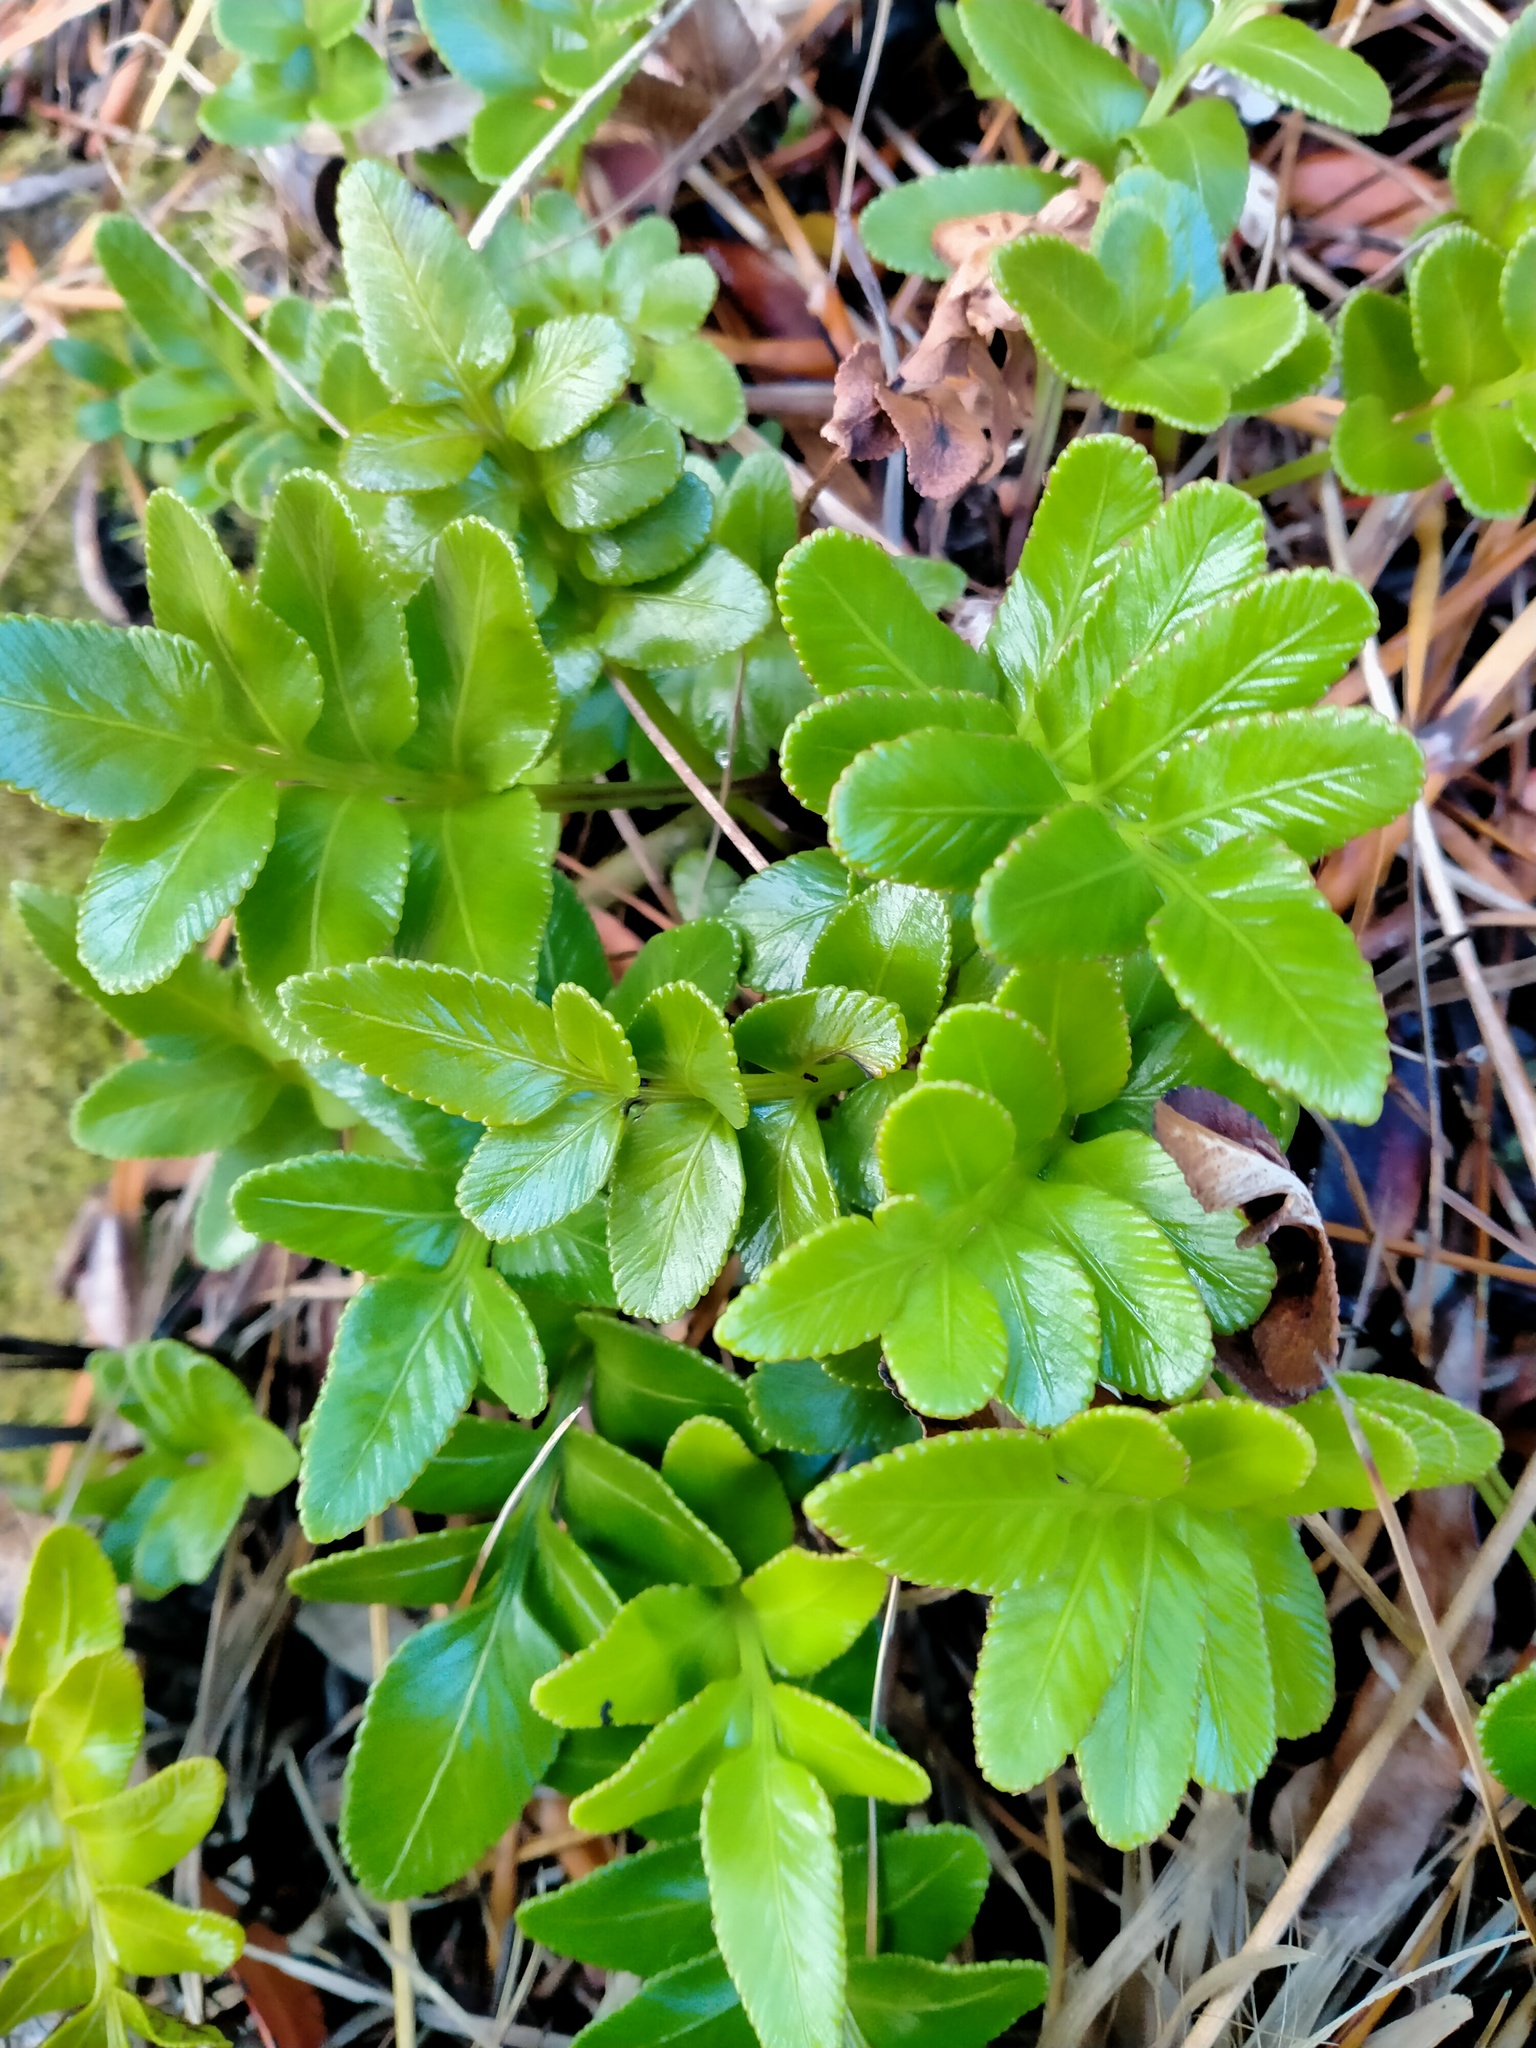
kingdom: Plantae
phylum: Tracheophyta
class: Polypodiopsida
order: Polypodiales
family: Aspleniaceae
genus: Asplenium
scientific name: Asplenium obtusatum
